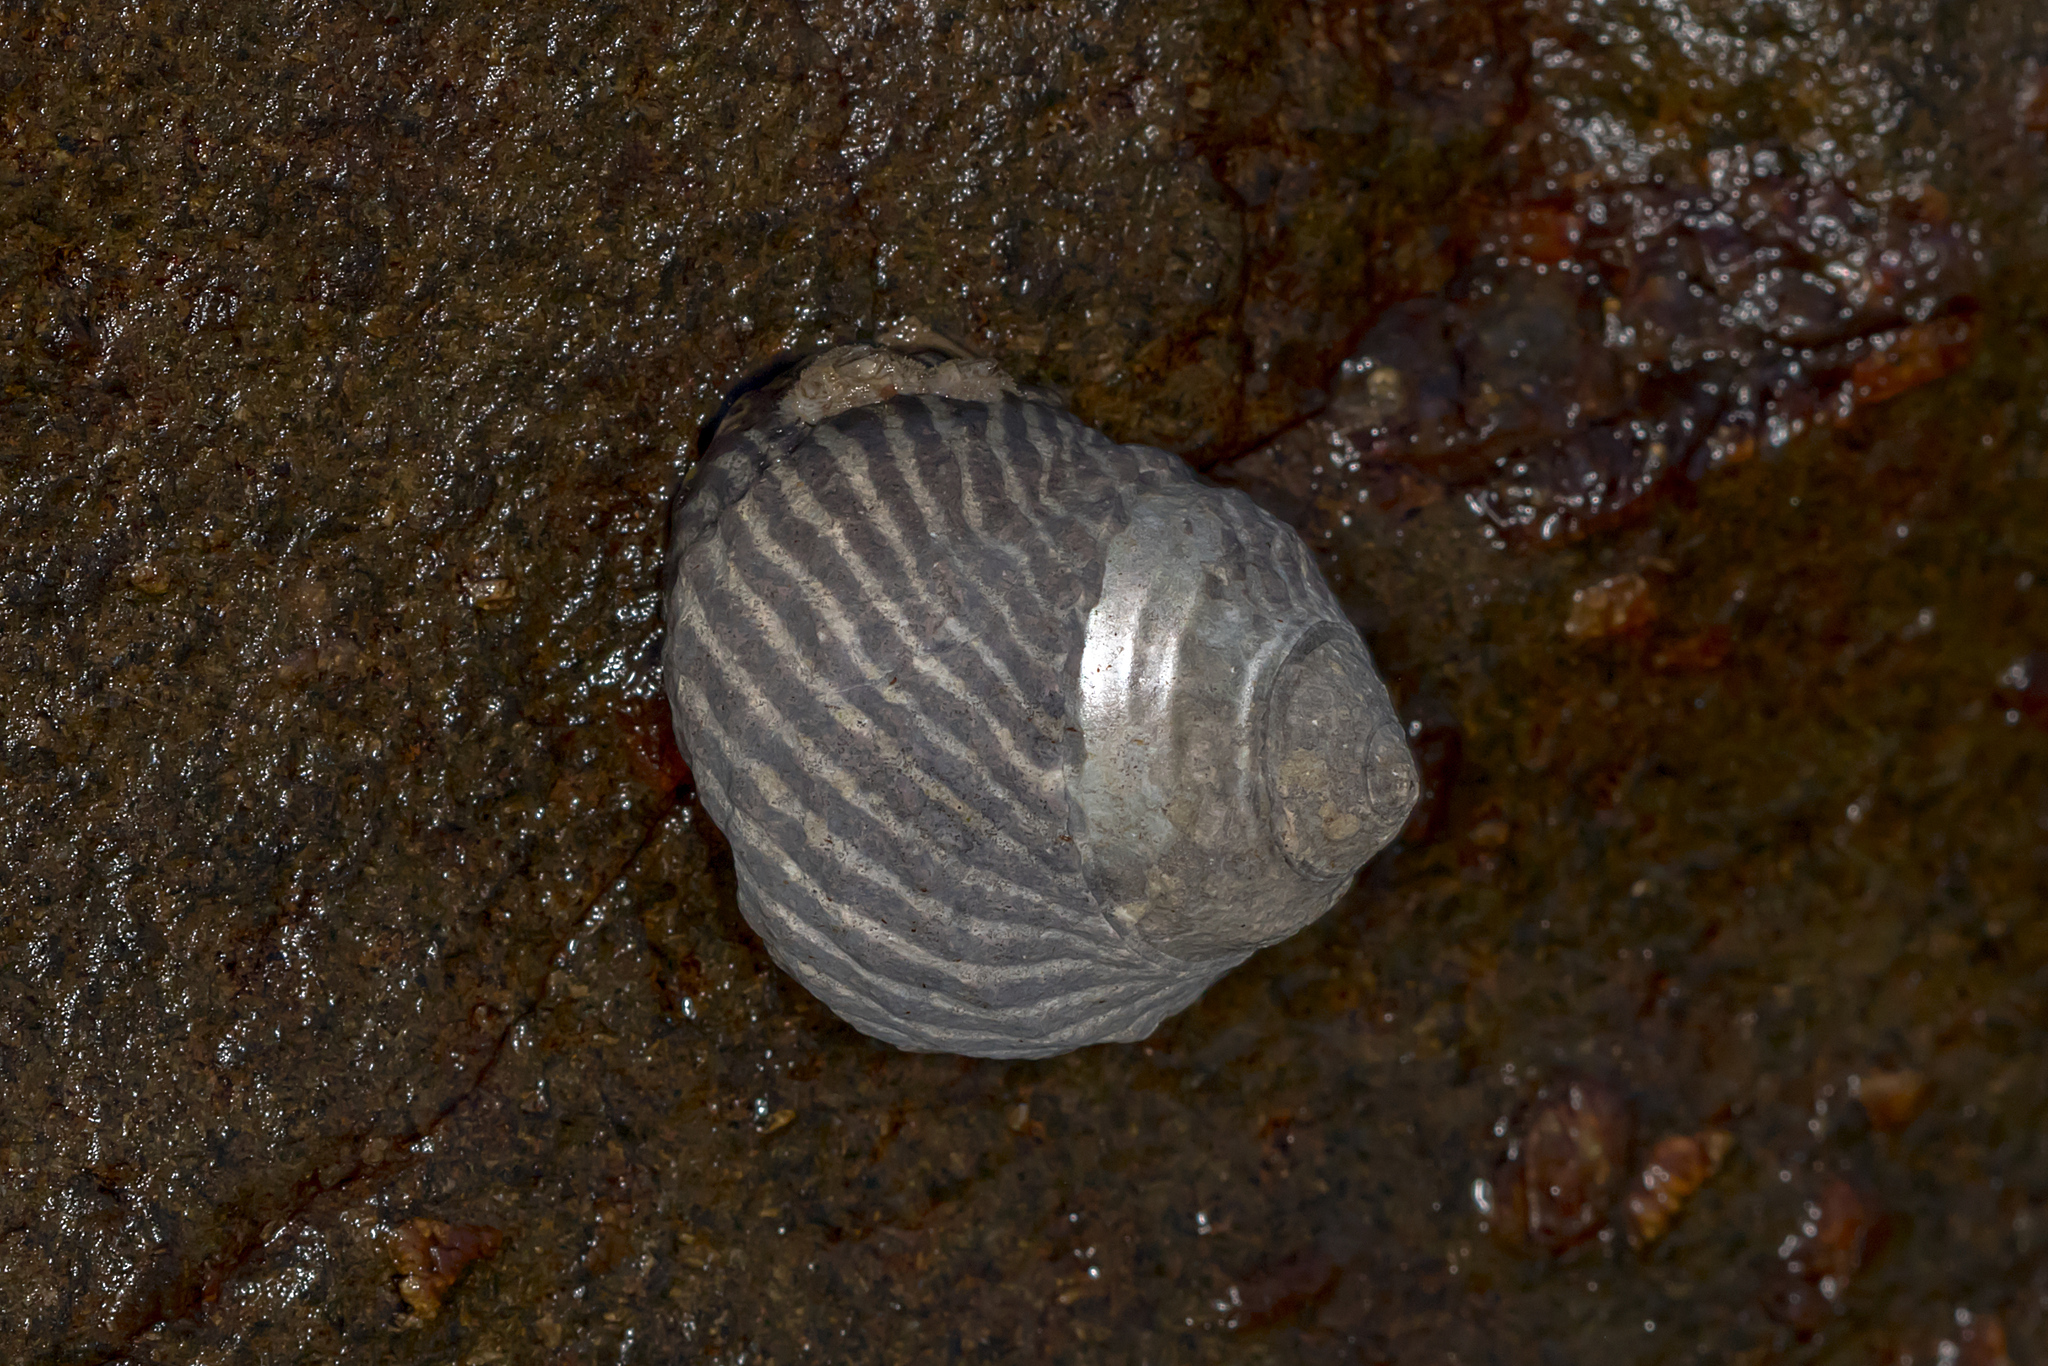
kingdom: Animalia
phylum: Mollusca
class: Gastropoda
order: Trochida
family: Trochidae
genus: Austrocochlea
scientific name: Austrocochlea porcata
